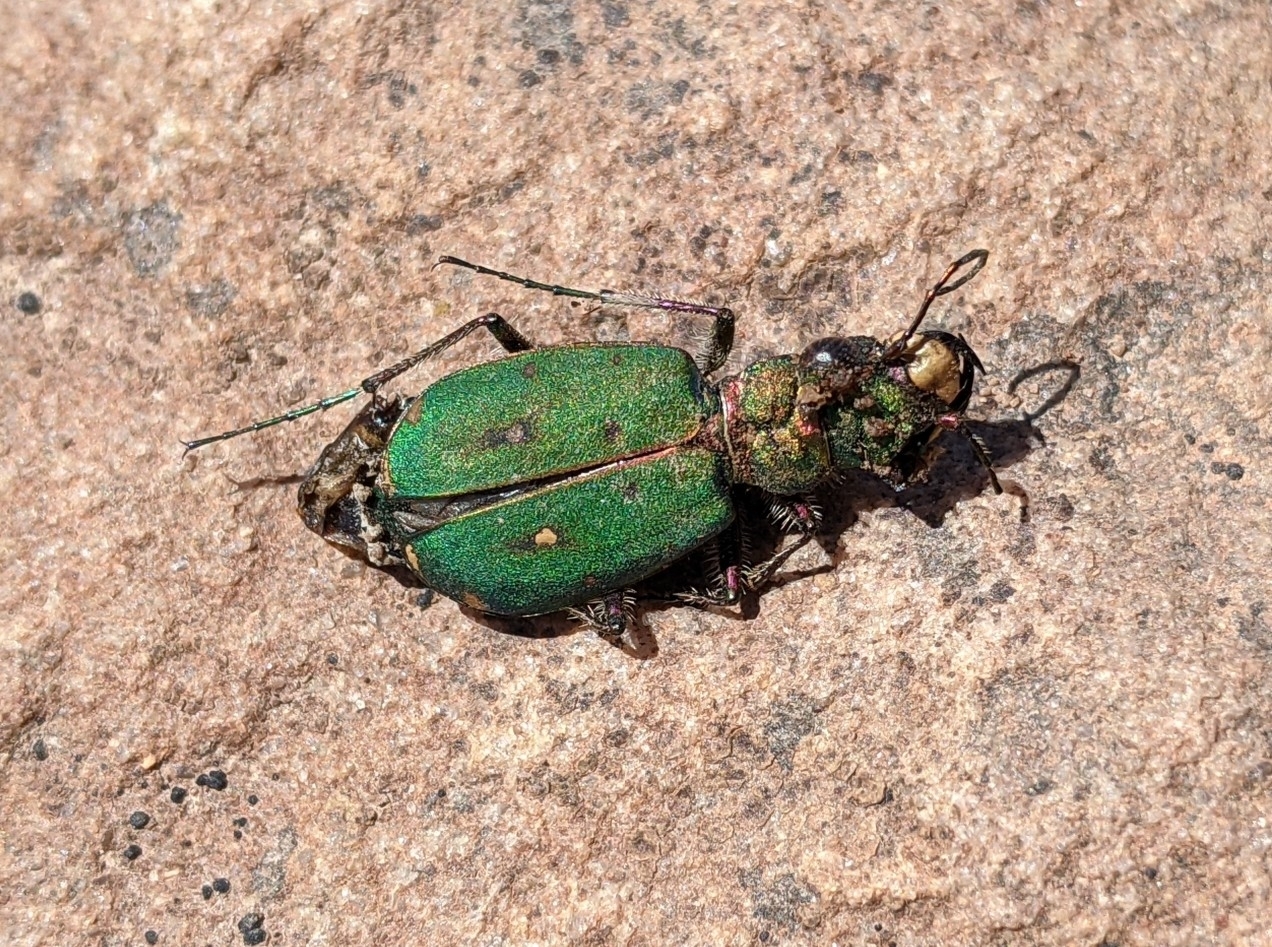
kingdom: Animalia
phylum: Arthropoda
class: Insecta
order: Coleoptera
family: Carabidae
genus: Cicindela
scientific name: Cicindela campestris
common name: Common tiger beetle
